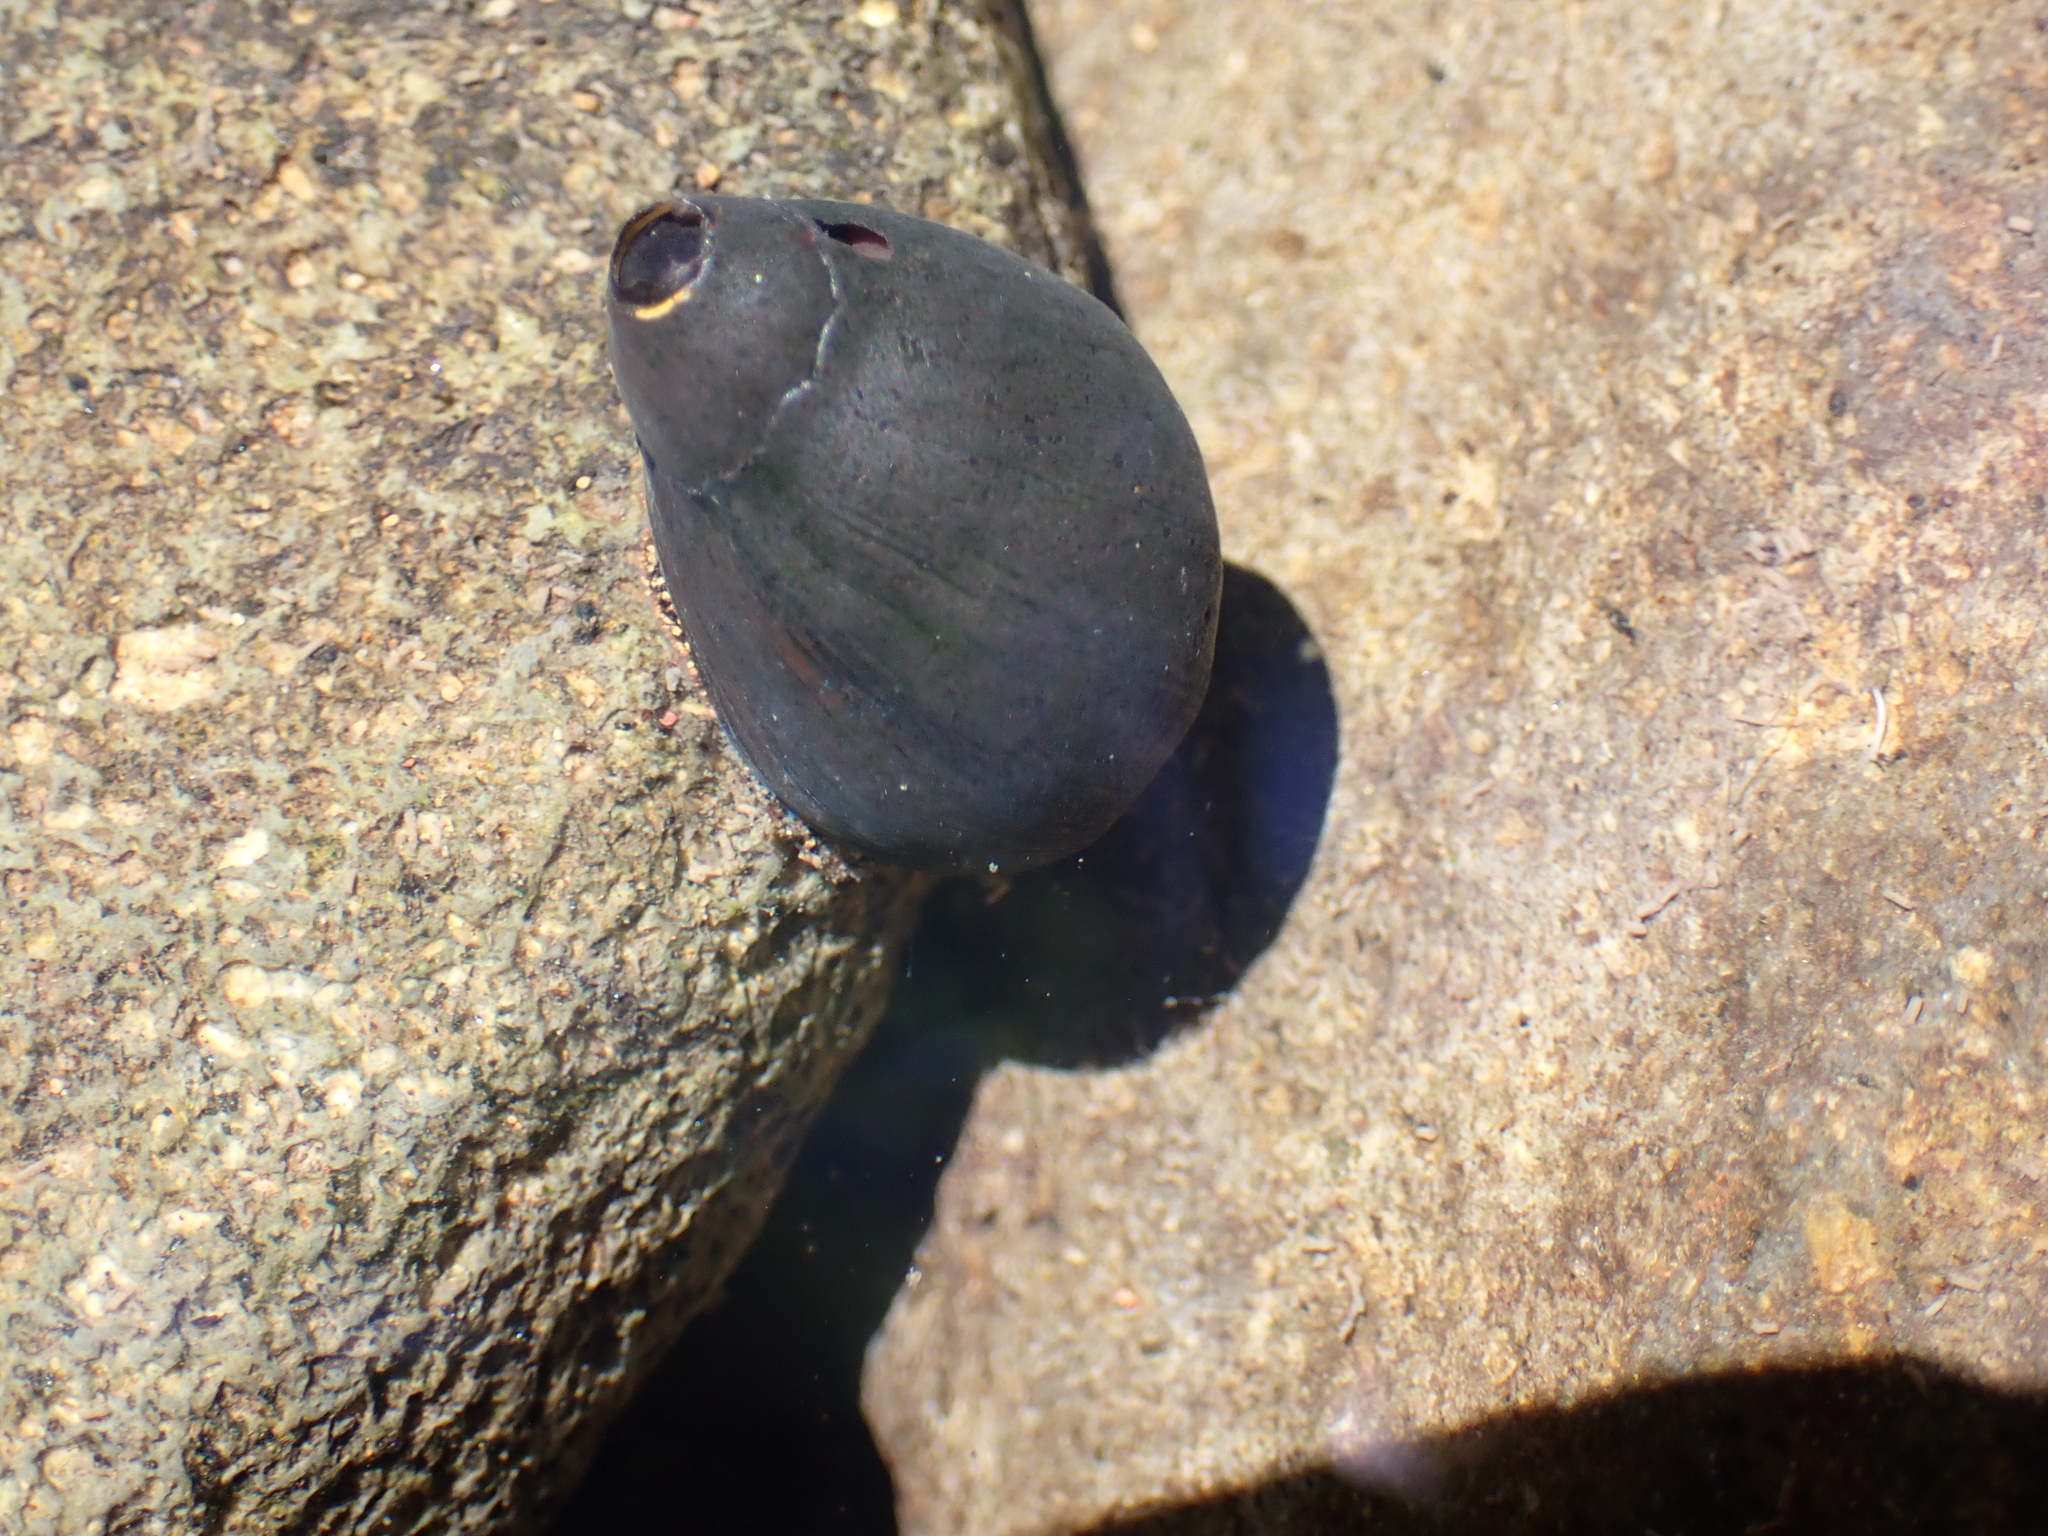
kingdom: Animalia
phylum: Mollusca
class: Gastropoda
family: Zemelanopsidae
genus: Zemelanopsis
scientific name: Zemelanopsis trifasciata
